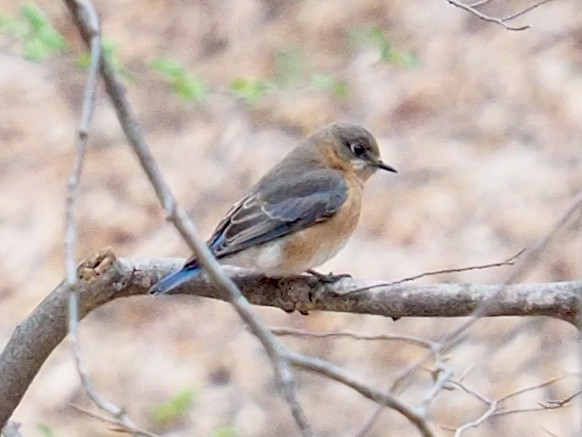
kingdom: Animalia
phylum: Chordata
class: Aves
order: Passeriformes
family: Turdidae
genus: Sialia
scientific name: Sialia sialis
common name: Eastern bluebird
